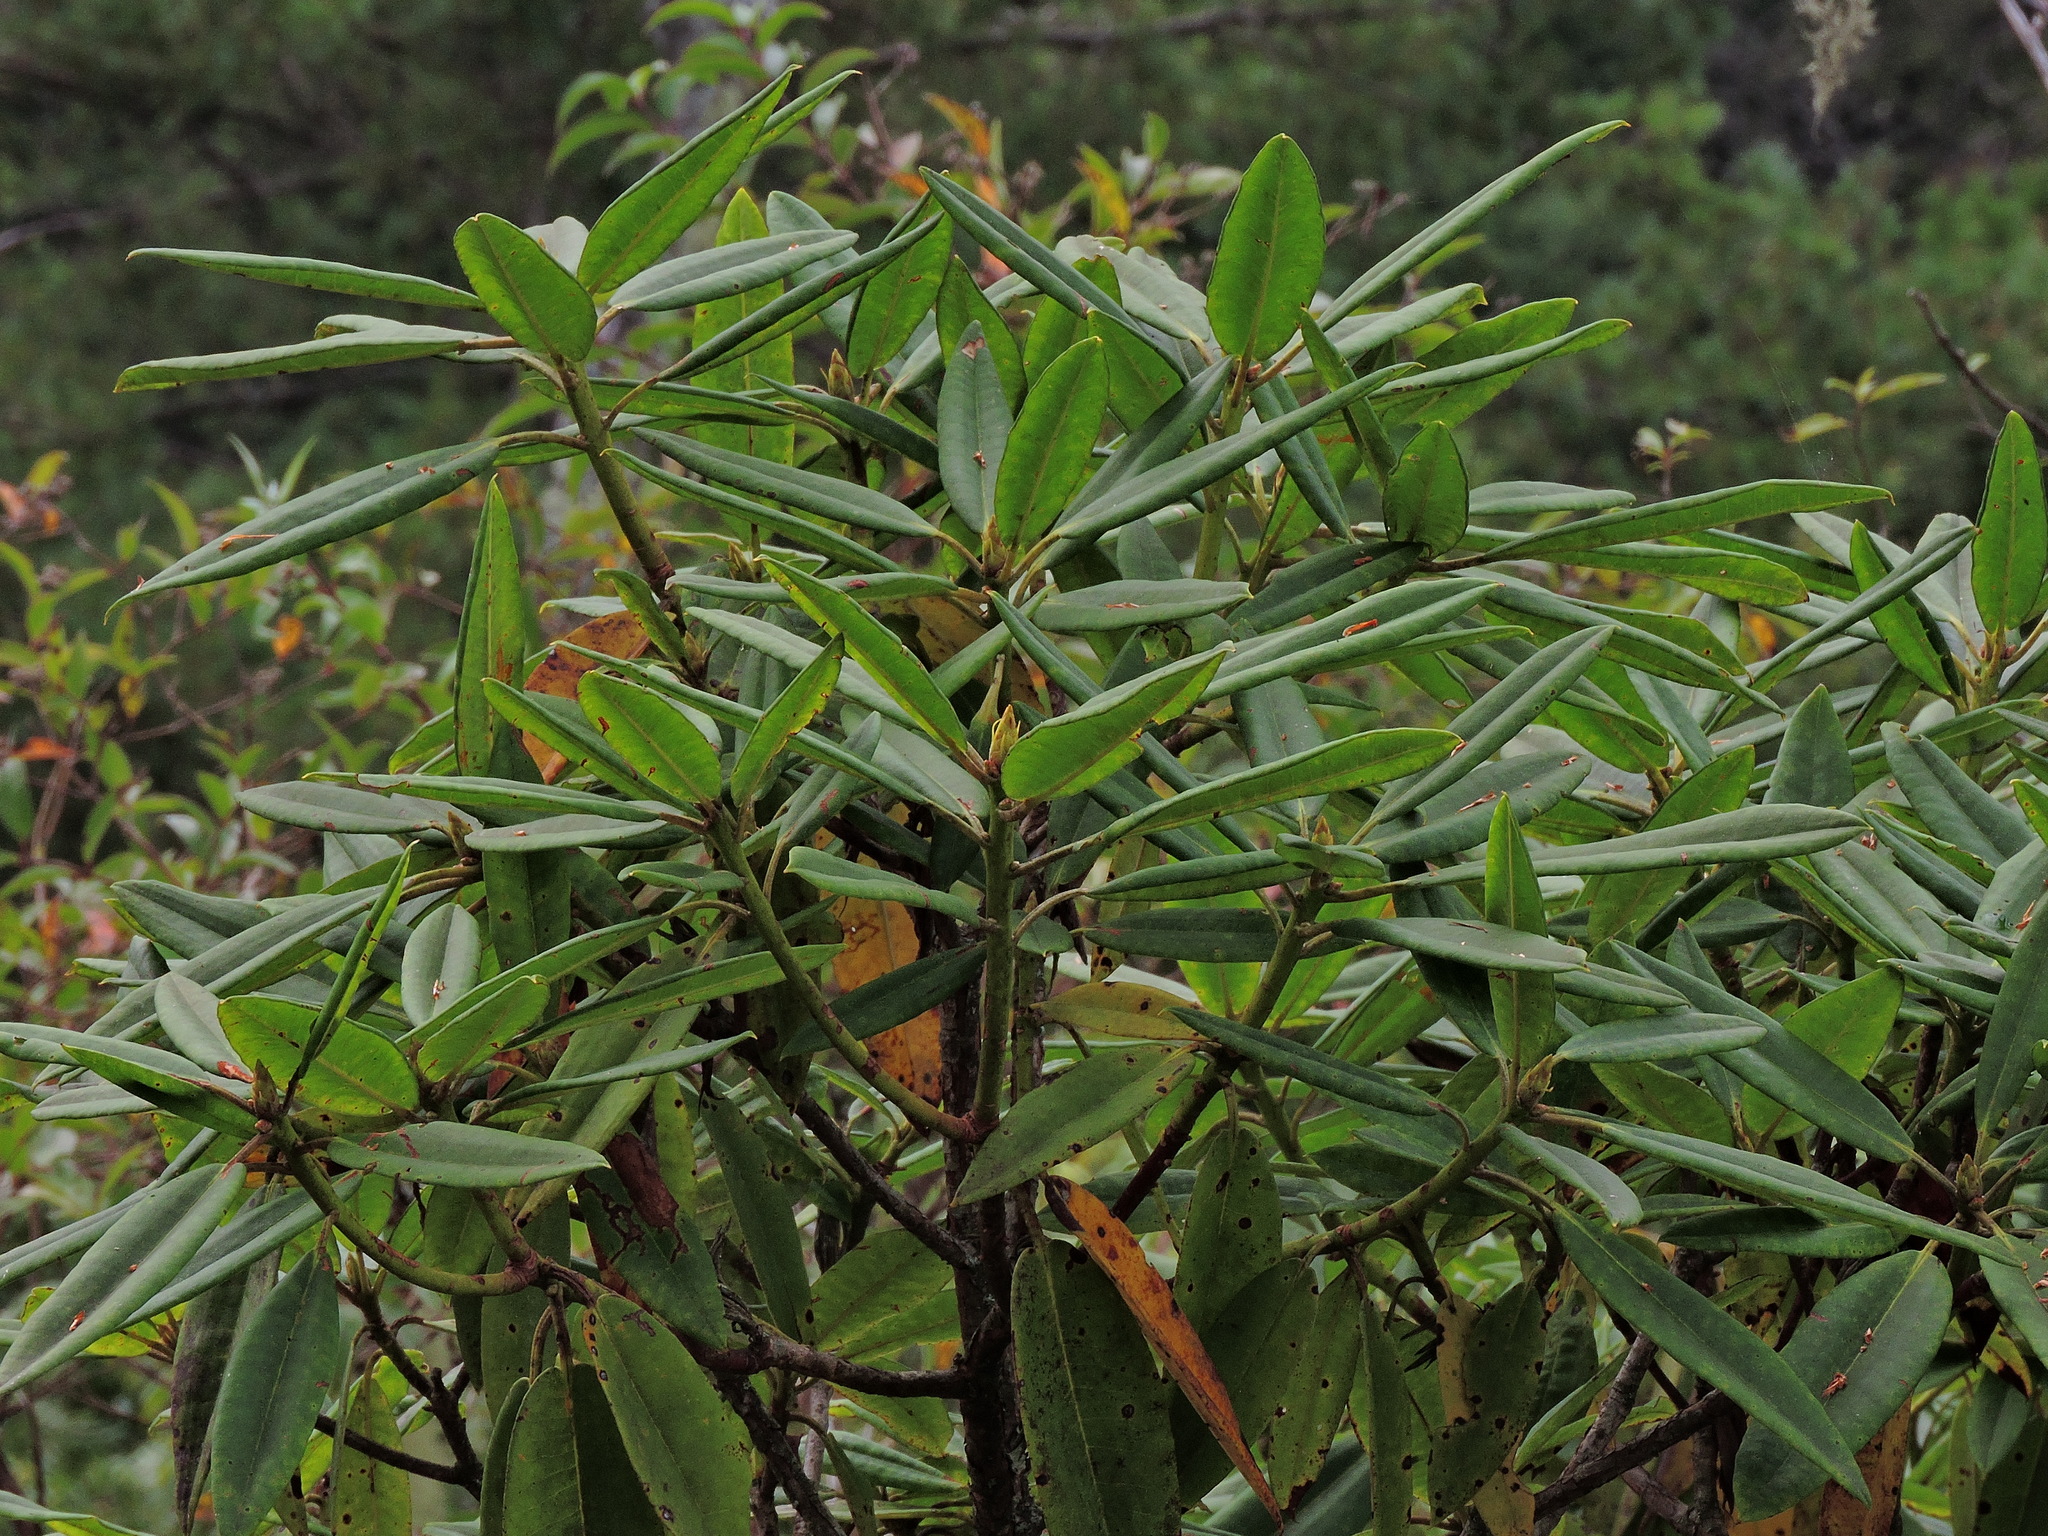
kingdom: Plantae
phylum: Tracheophyta
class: Magnoliopsida
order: Ericales
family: Ericaceae
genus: Rhododendron
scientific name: Rhododendron pseudochrysanthum
